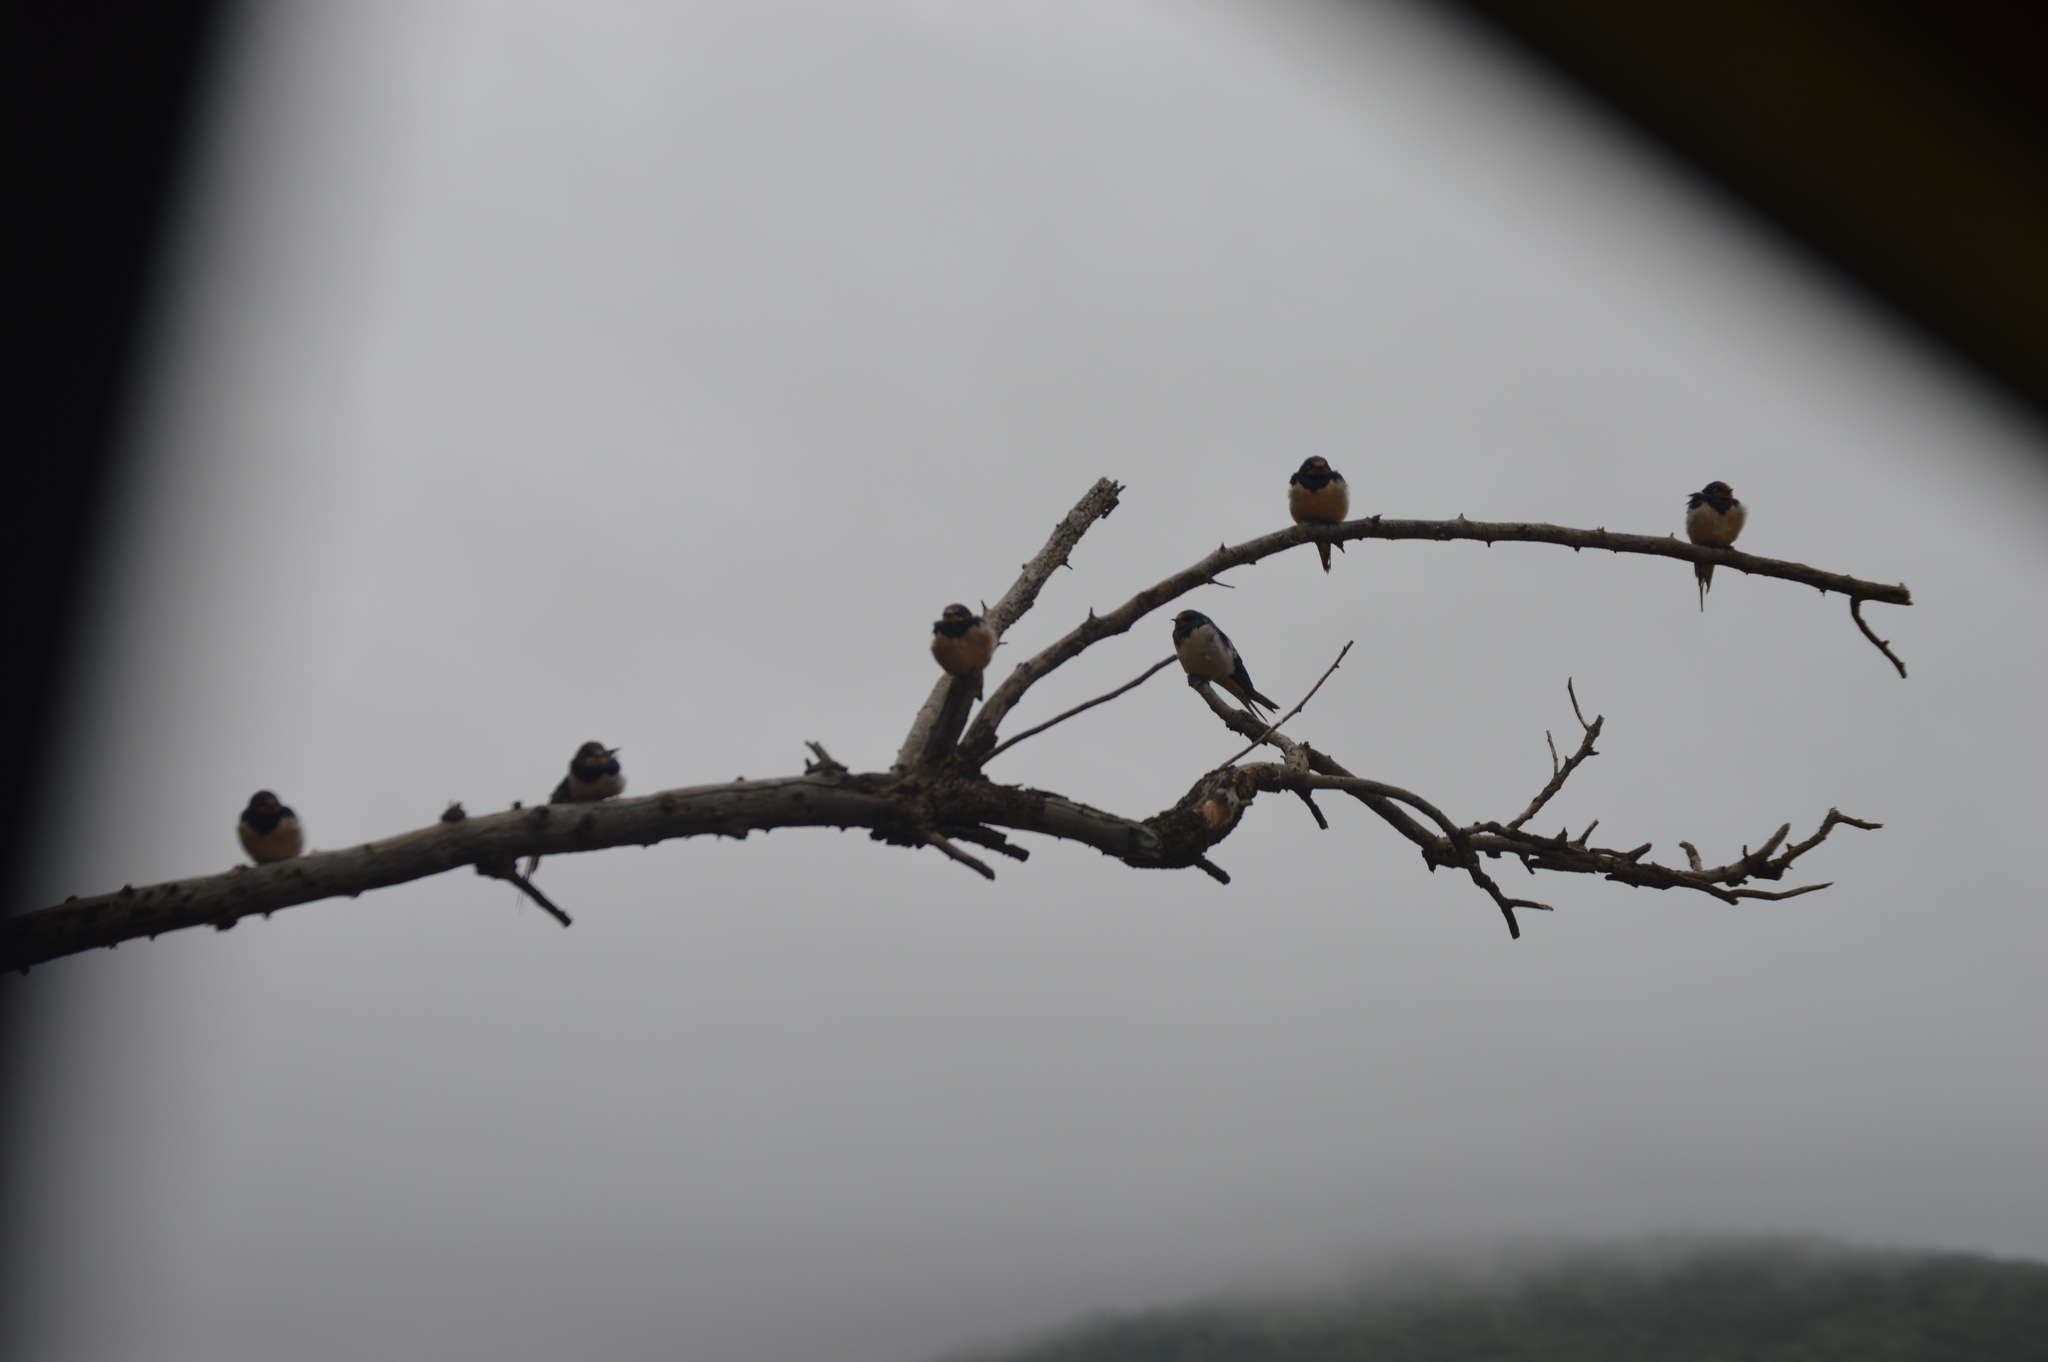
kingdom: Animalia
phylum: Chordata
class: Aves
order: Passeriformes
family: Hirundinidae
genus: Hirundo
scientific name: Hirundo rustica
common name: Barn swallow
